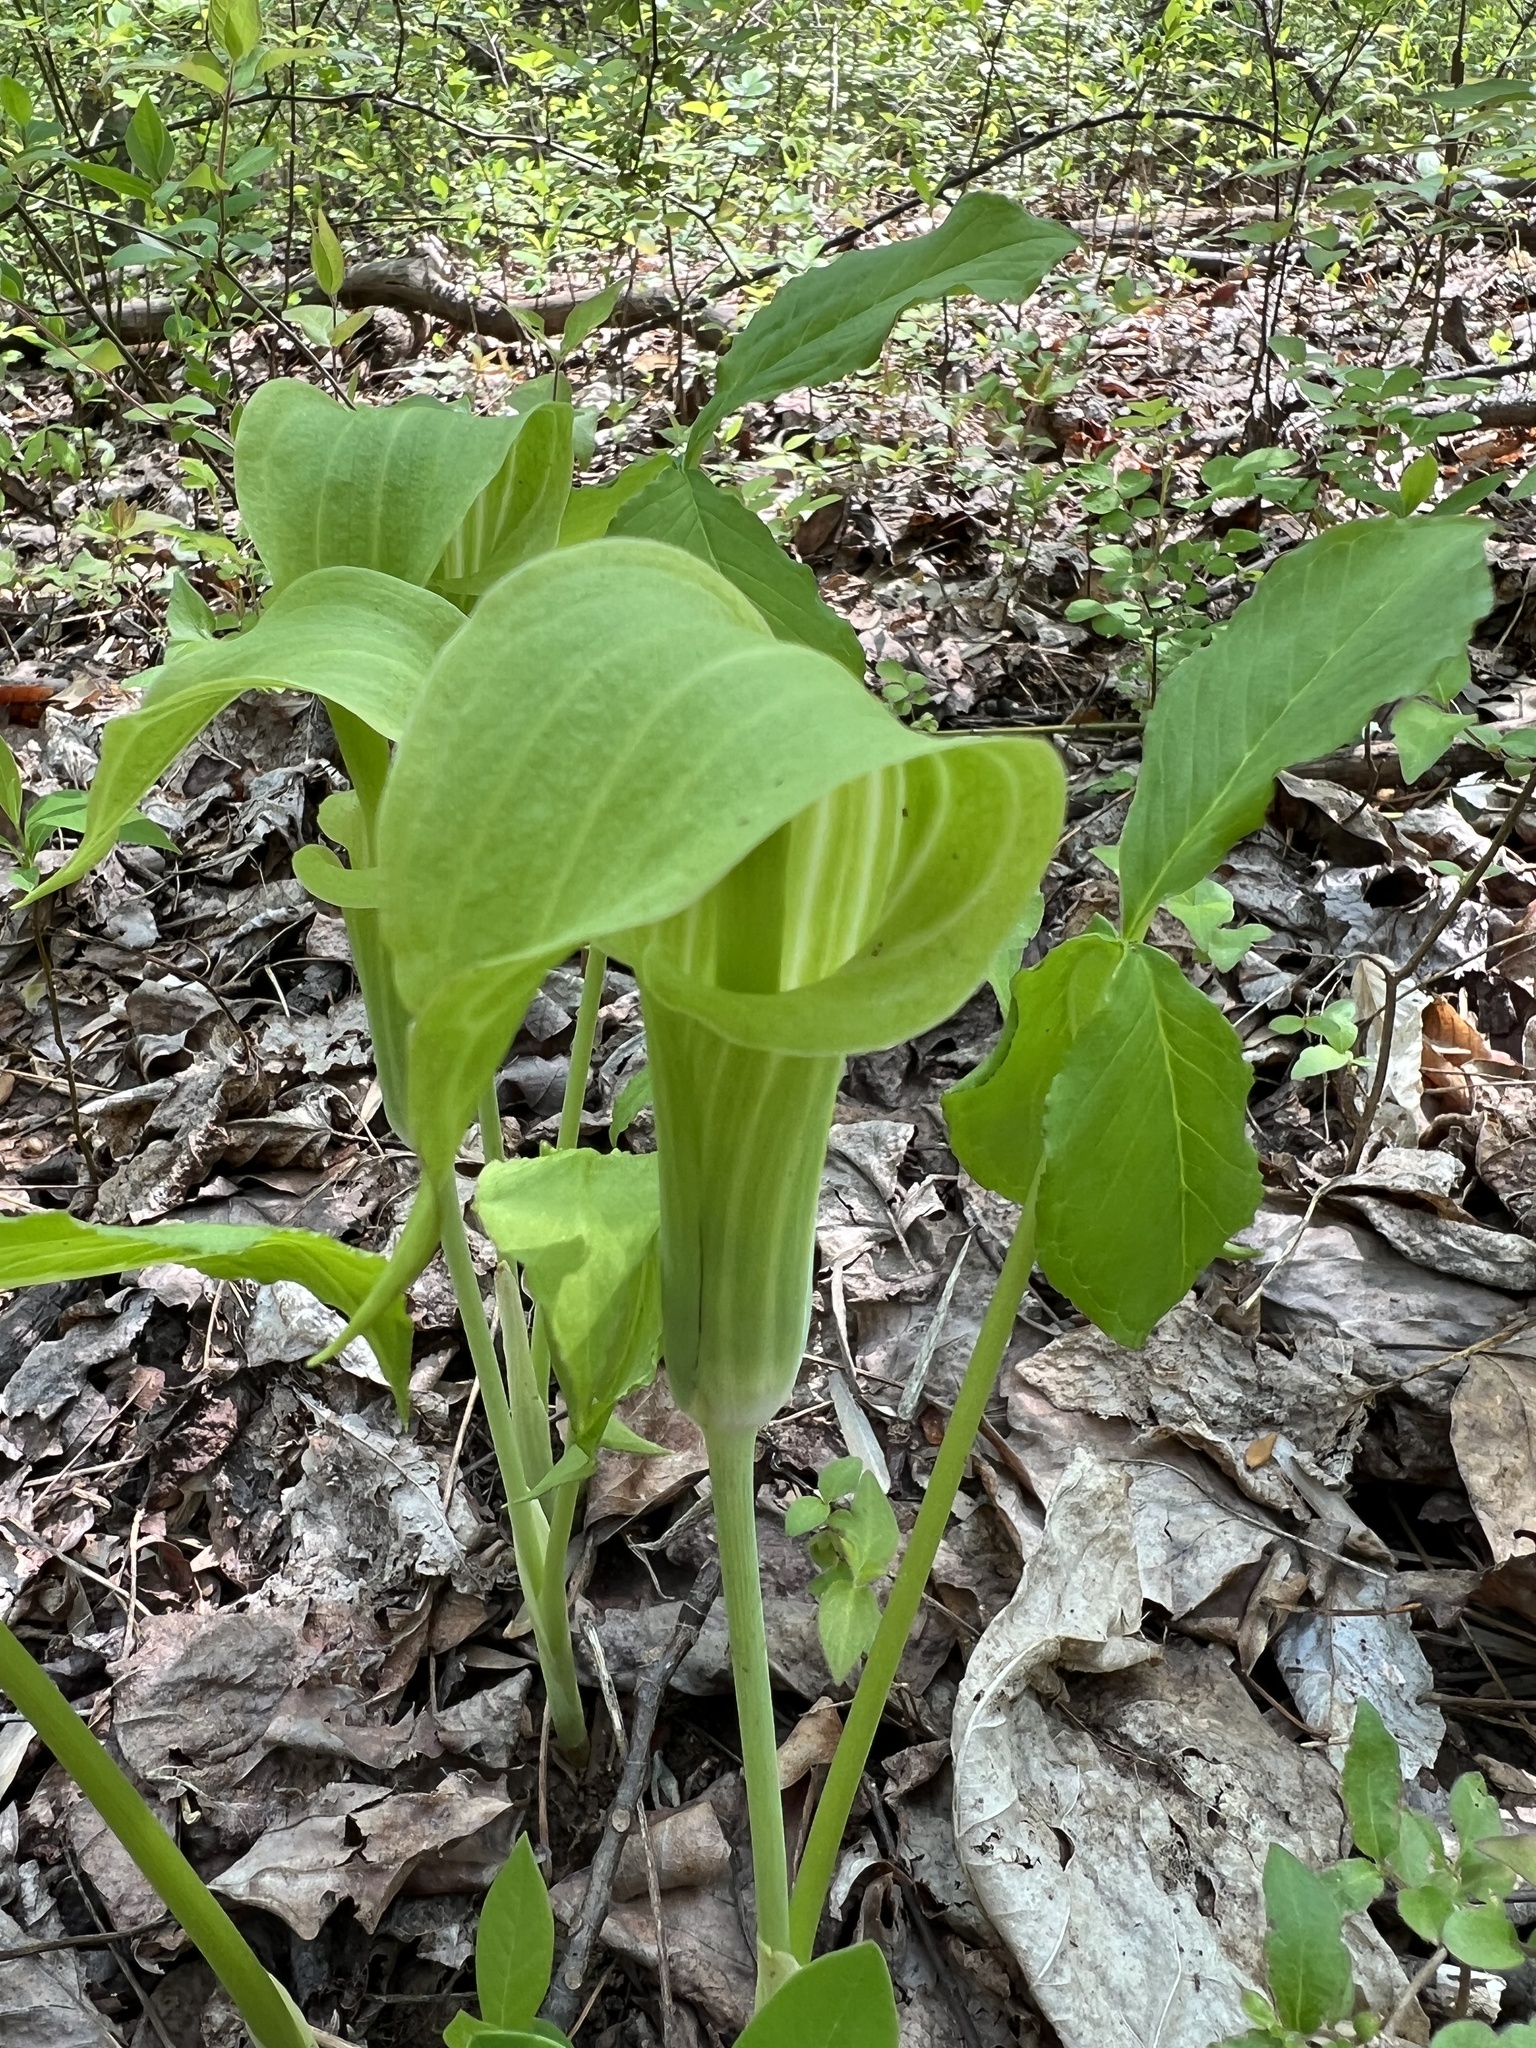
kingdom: Plantae
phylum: Tracheophyta
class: Liliopsida
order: Alismatales
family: Araceae
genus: Arisaema
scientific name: Arisaema triphyllum
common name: Jack-in-the-pulpit
